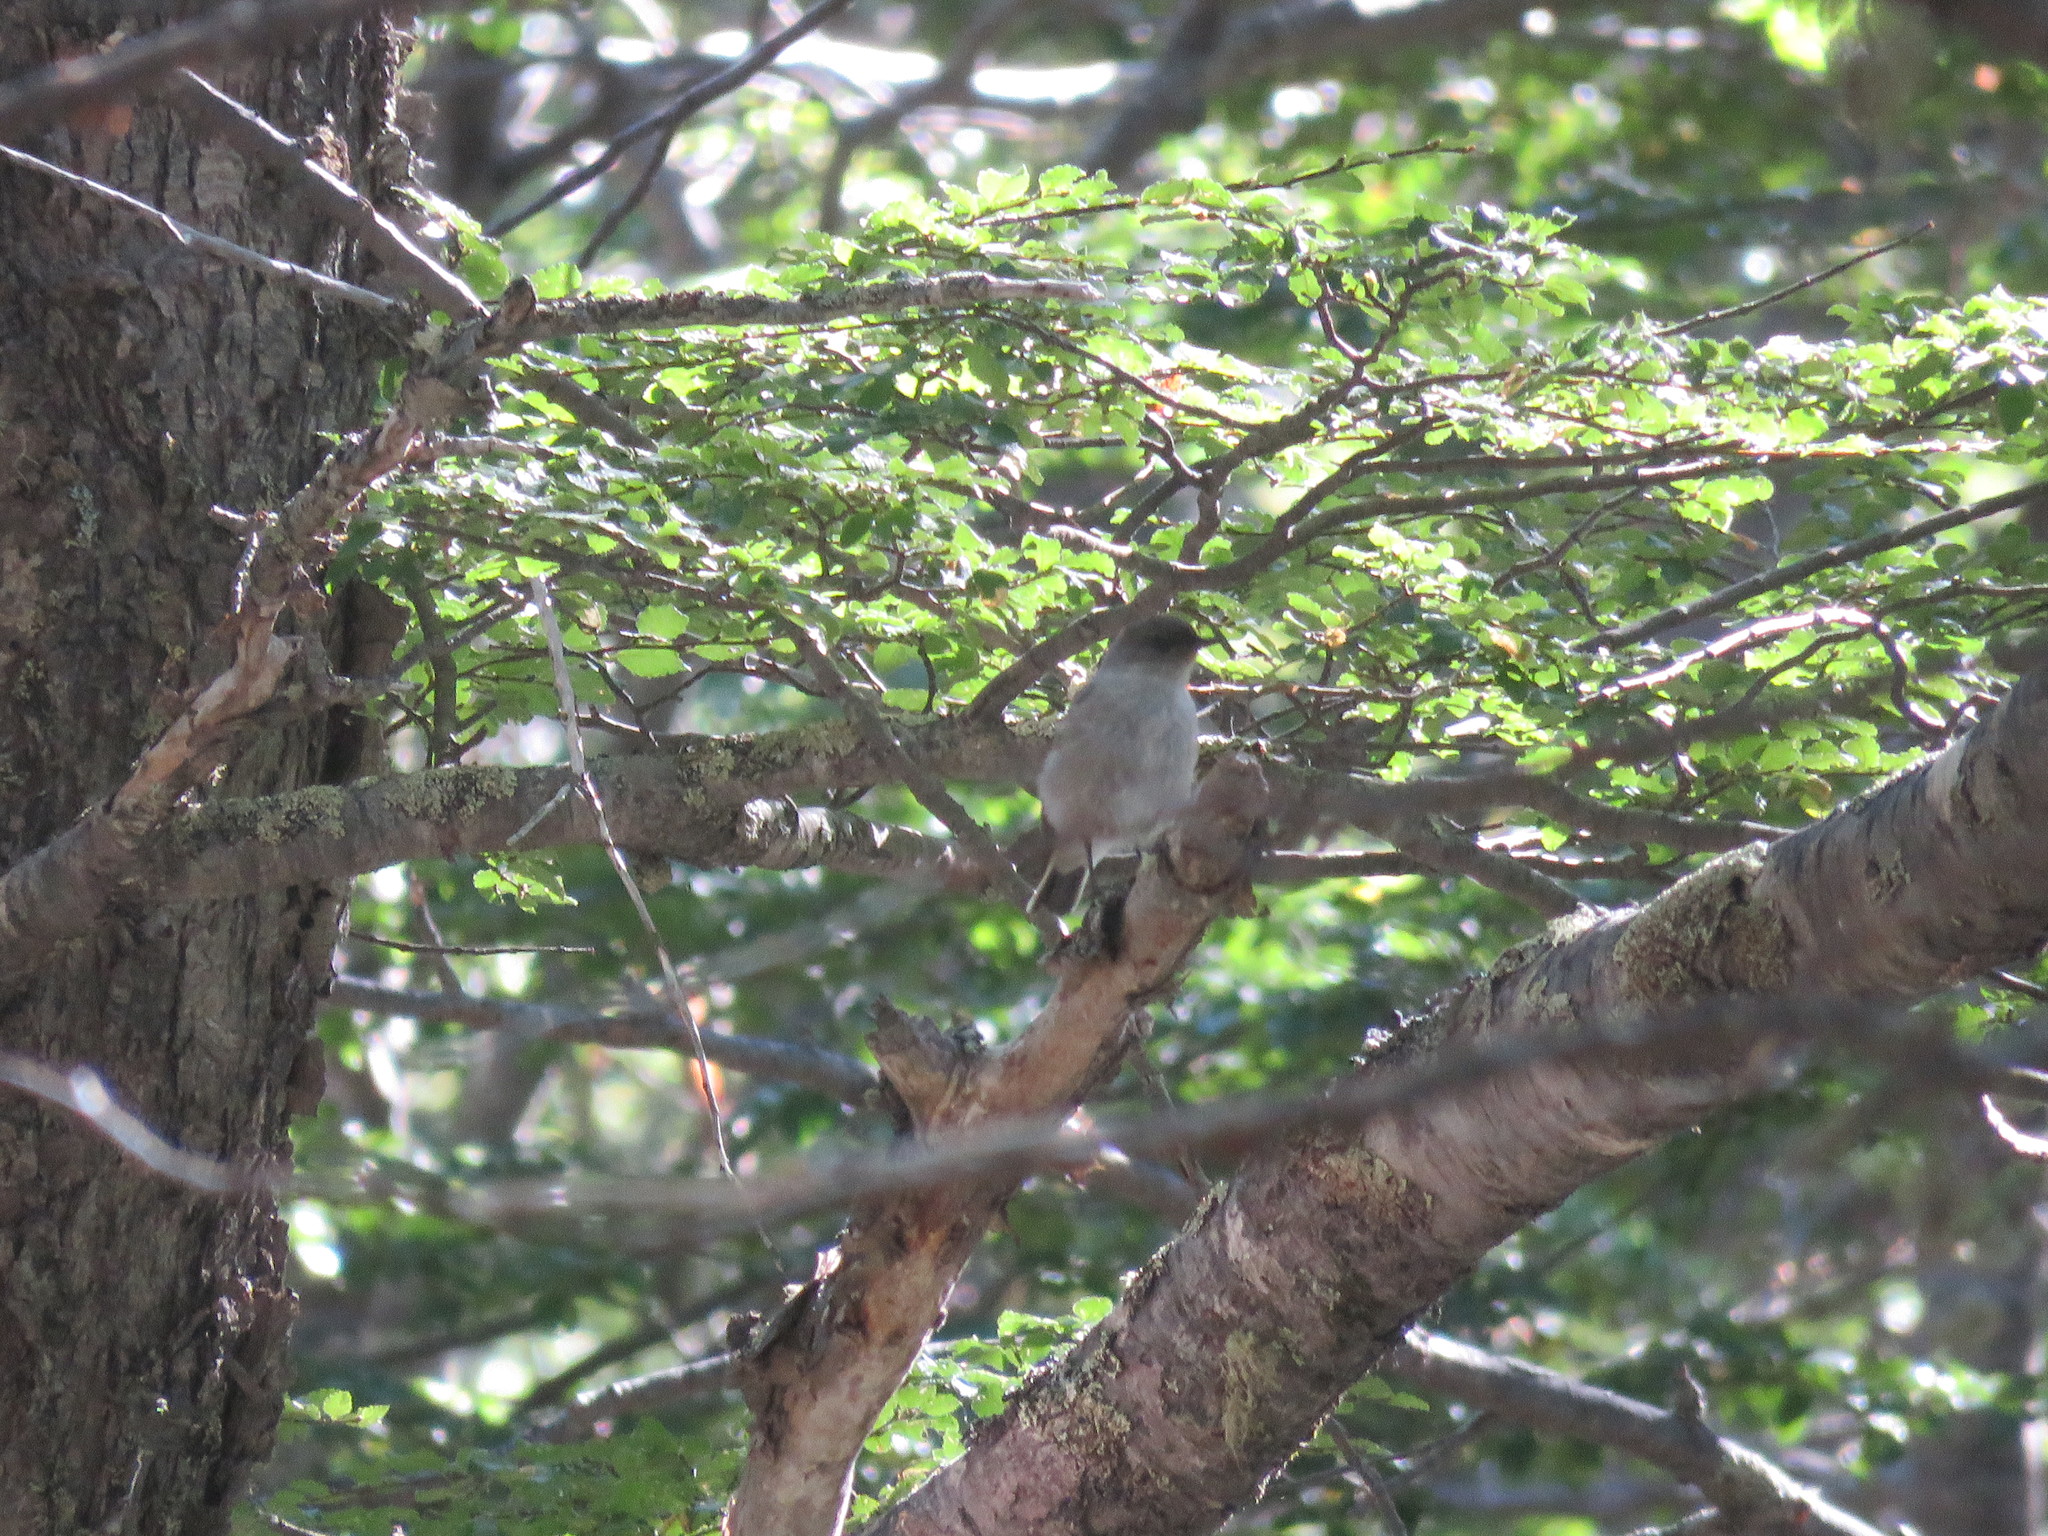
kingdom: Animalia
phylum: Chordata
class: Aves
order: Passeriformes
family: Tyrannidae
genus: Muscisaxicola
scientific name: Muscisaxicola maclovianus
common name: Dark-faced ground tyrant
